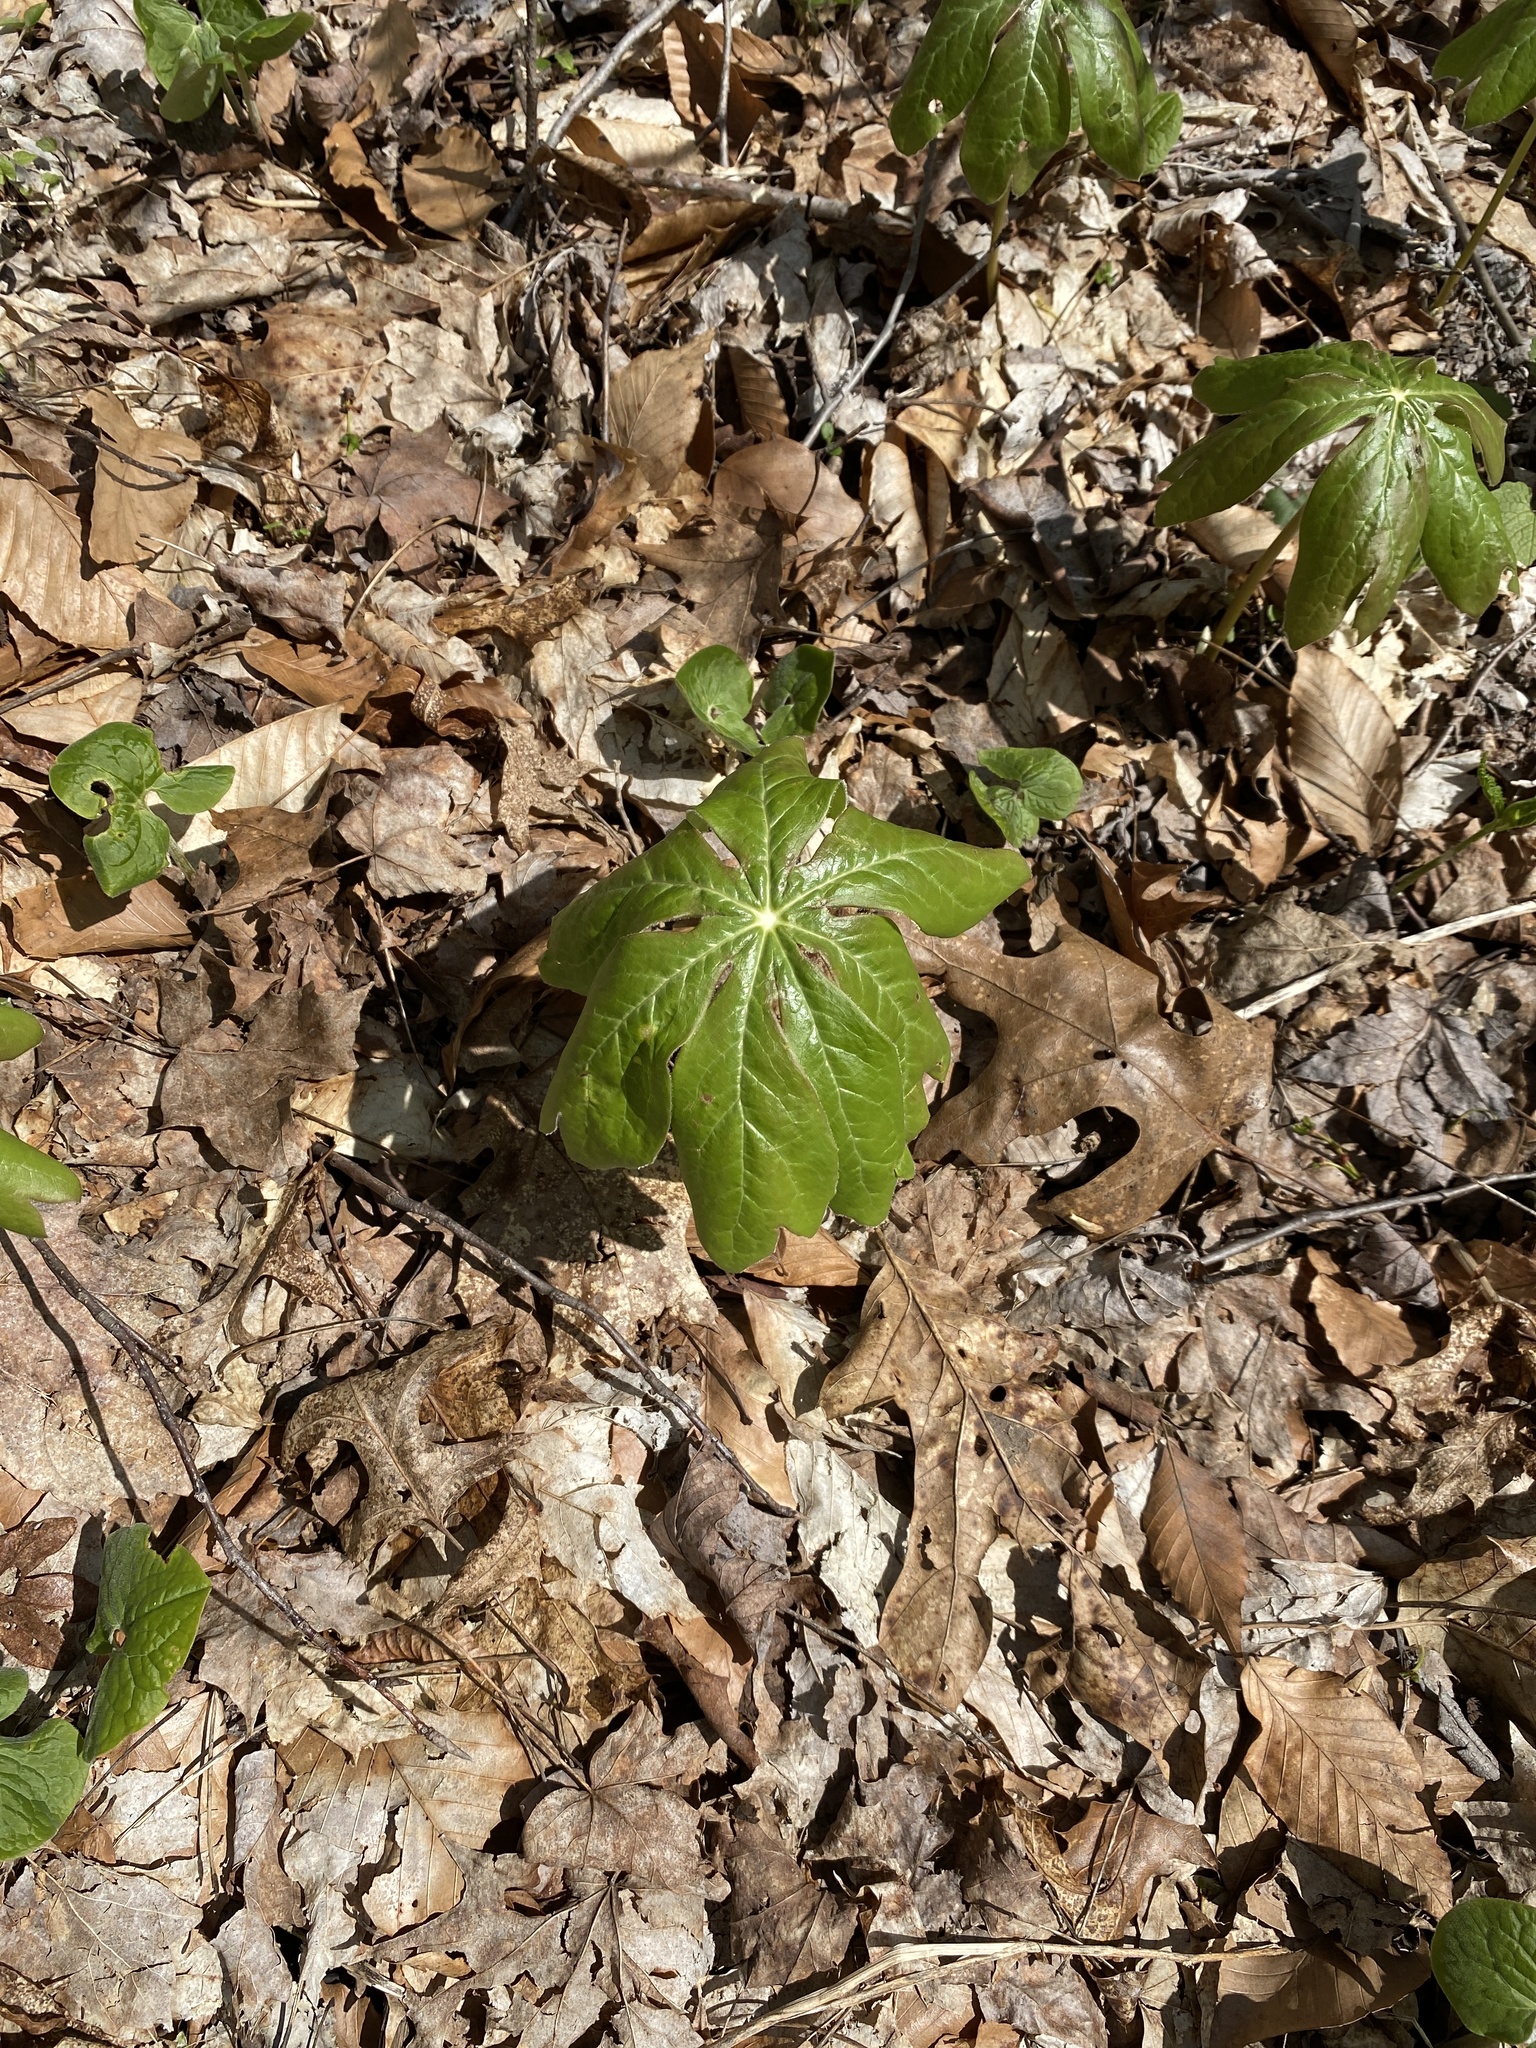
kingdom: Plantae
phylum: Tracheophyta
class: Magnoliopsida
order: Ranunculales
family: Berberidaceae
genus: Podophyllum
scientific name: Podophyllum peltatum
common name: Wild mandrake
